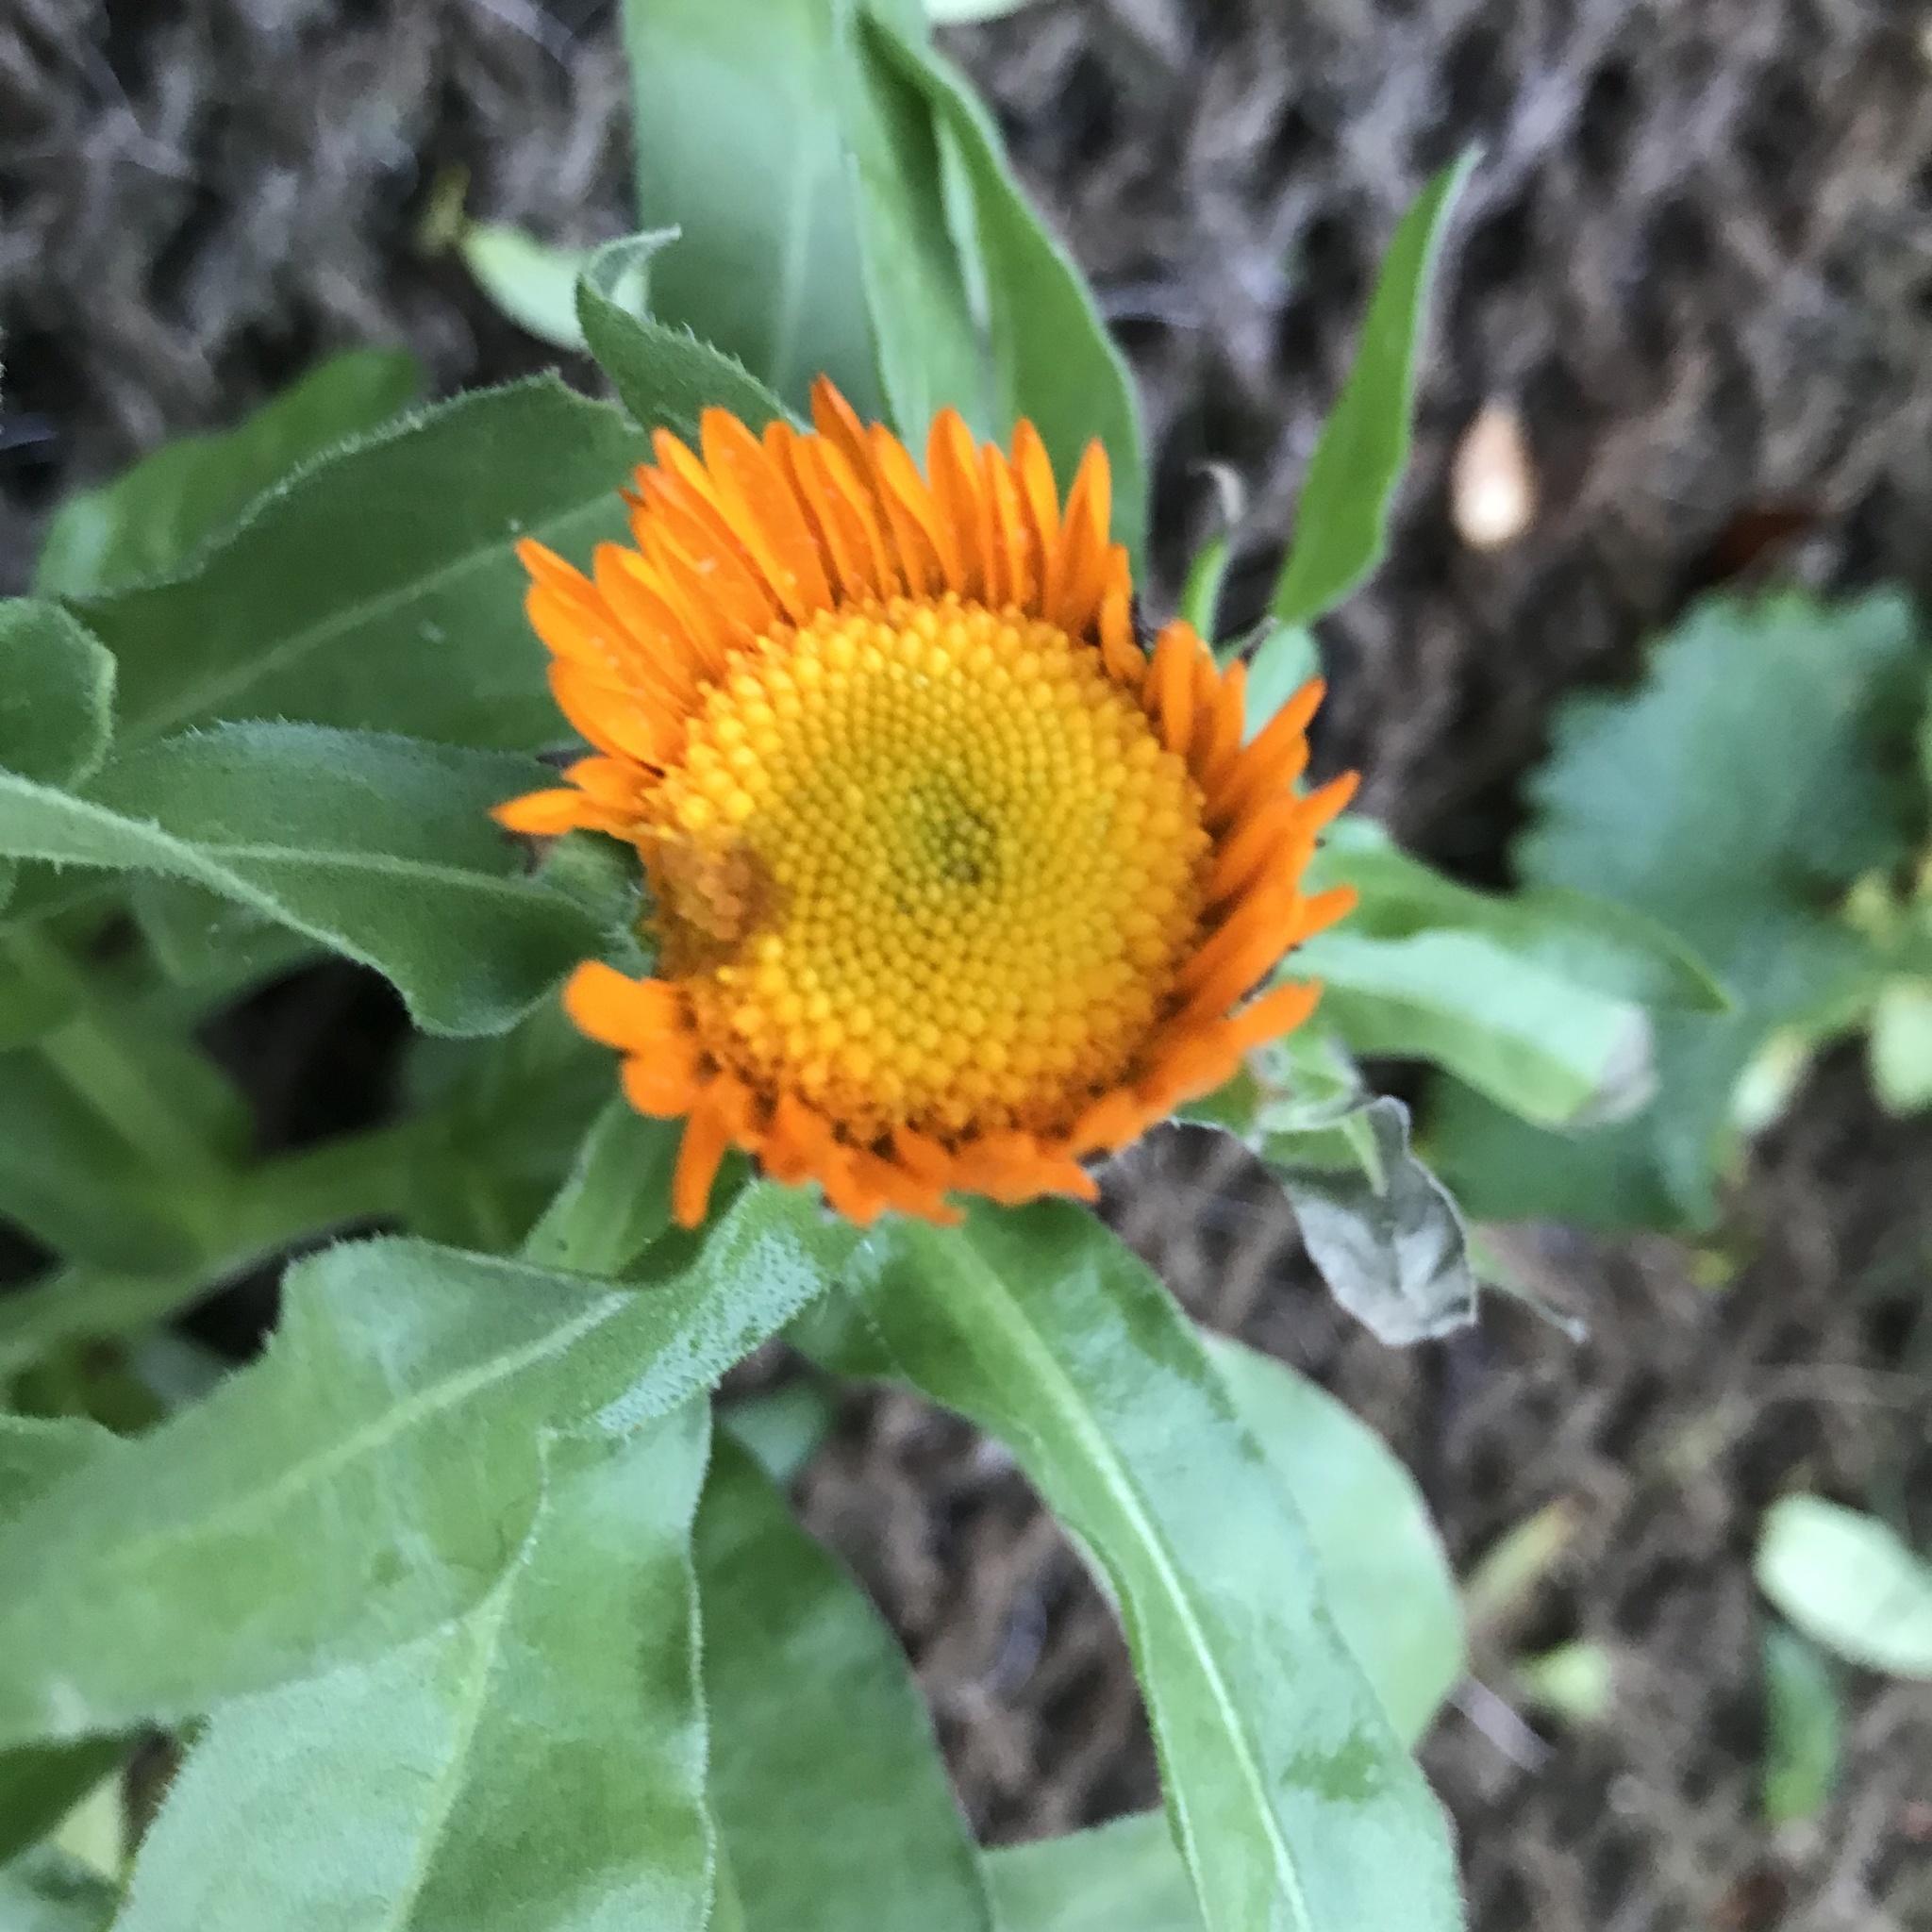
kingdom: Plantae
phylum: Tracheophyta
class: Magnoliopsida
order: Asterales
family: Asteraceae
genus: Calendula
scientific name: Calendula officinalis
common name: Pot marigold
